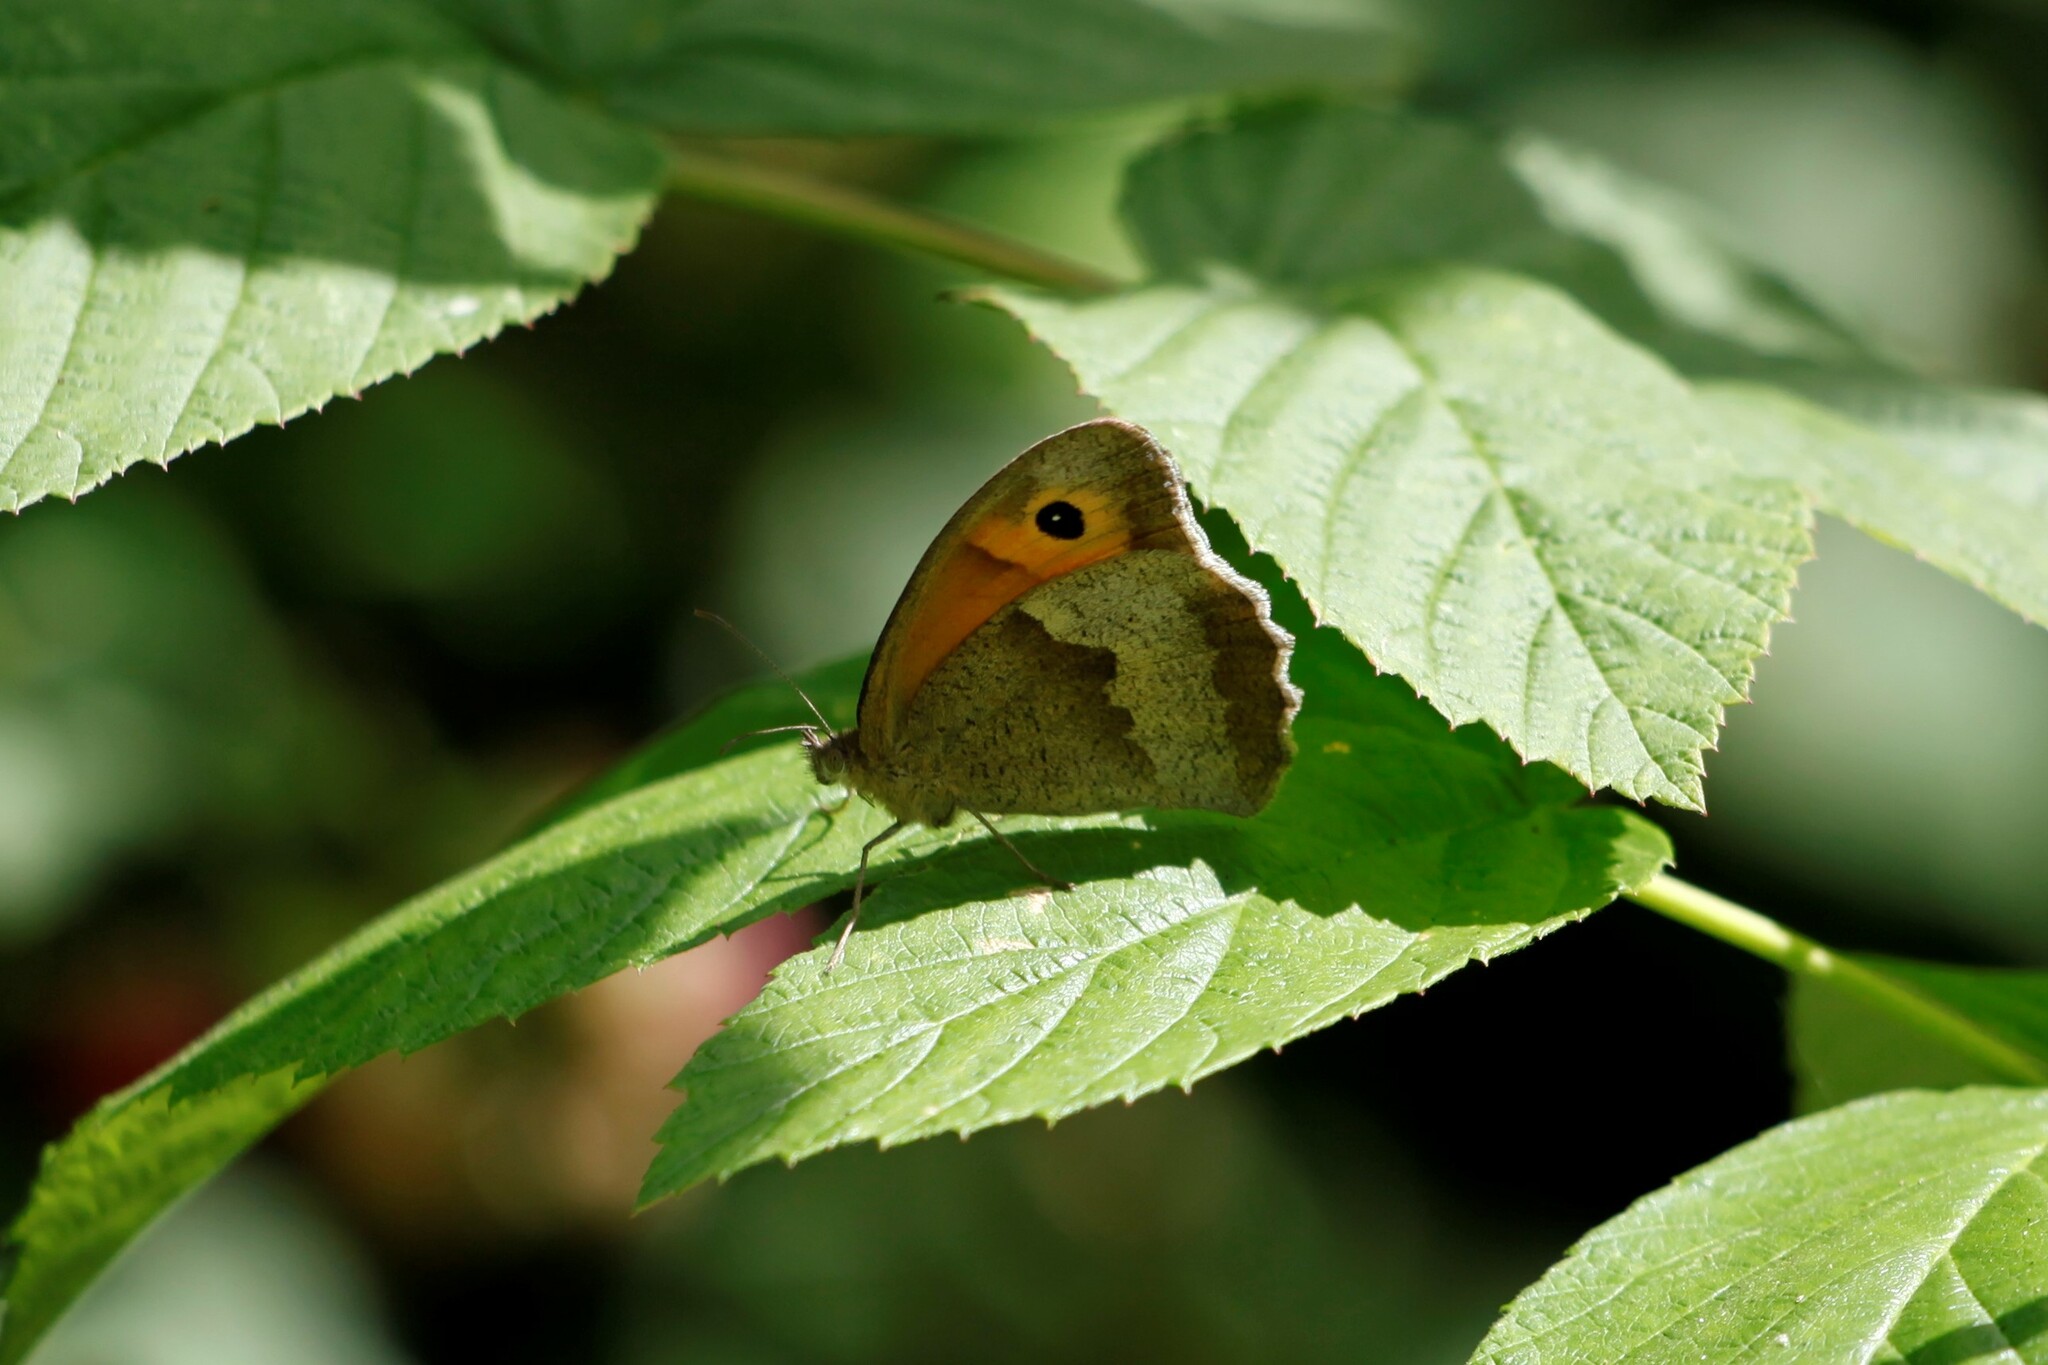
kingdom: Animalia
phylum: Arthropoda
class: Insecta
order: Lepidoptera
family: Nymphalidae
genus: Maniola
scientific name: Maniola jurtina
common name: Meadow brown
